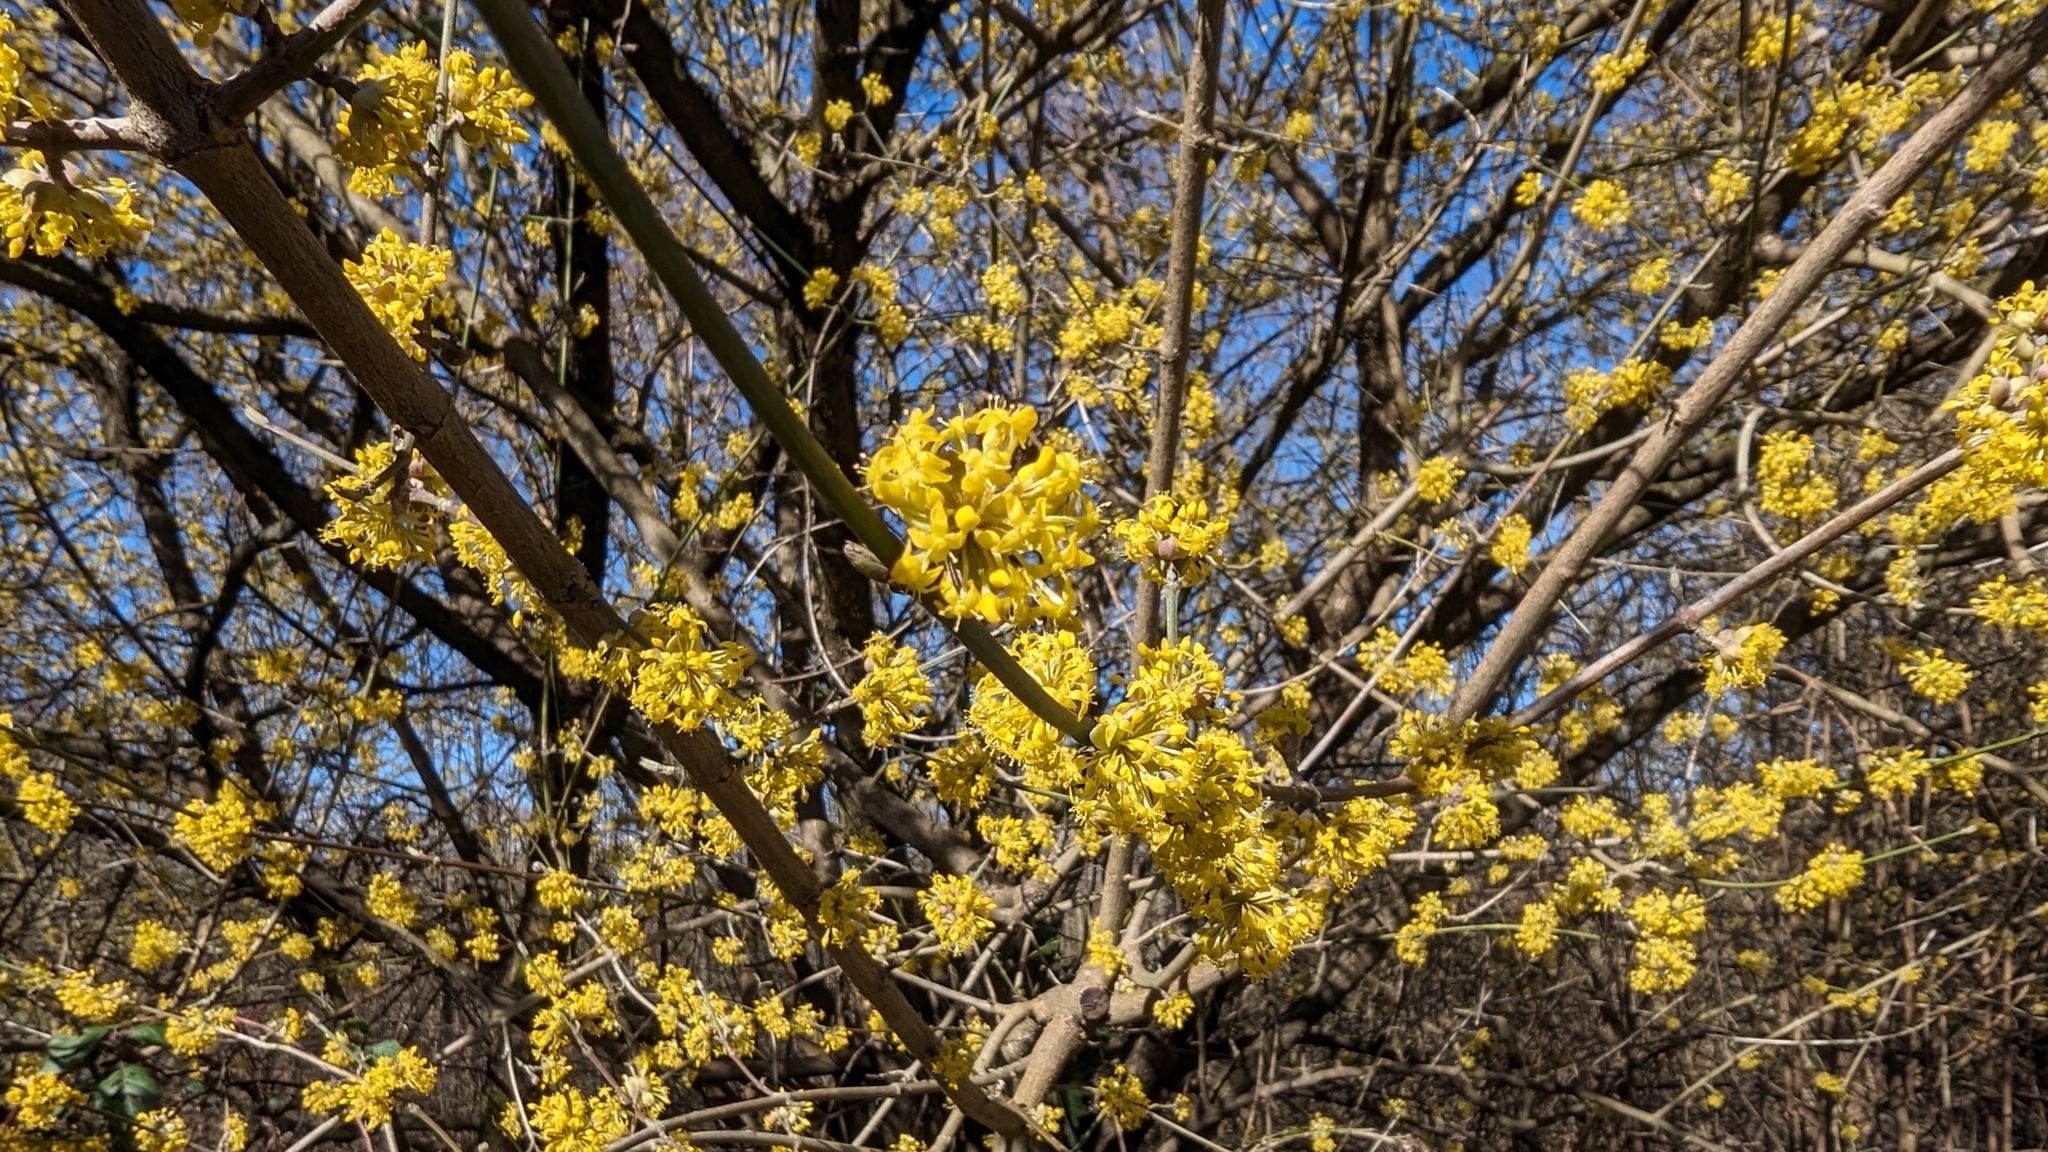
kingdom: Plantae
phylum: Tracheophyta
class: Magnoliopsida
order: Cornales
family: Cornaceae
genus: Cornus
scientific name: Cornus mas
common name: Cornelian-cherry
